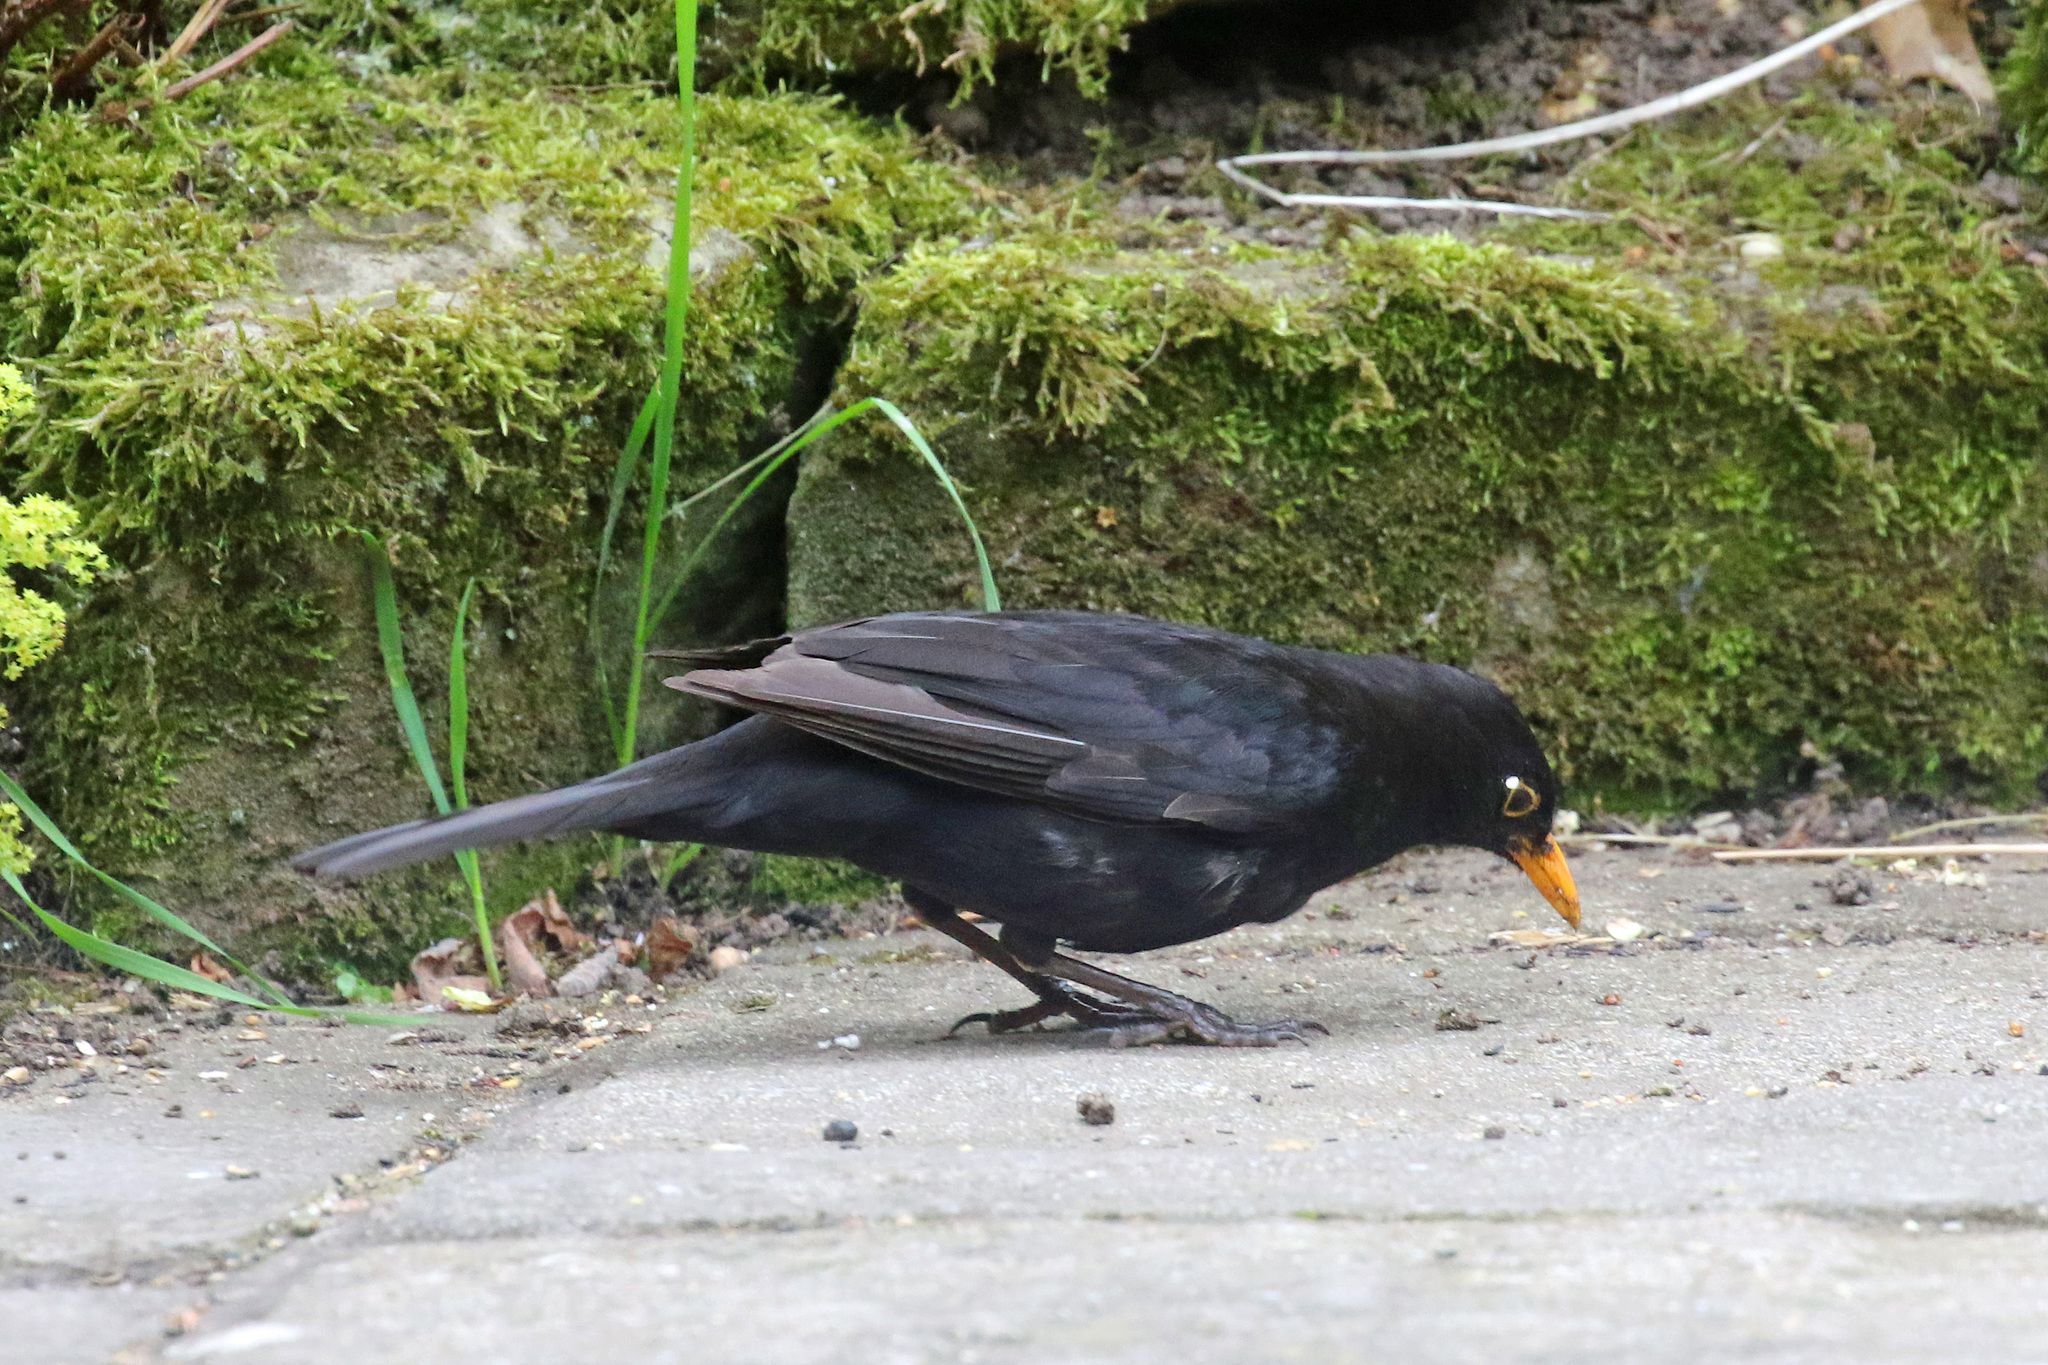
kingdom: Animalia
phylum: Chordata
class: Aves
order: Passeriformes
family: Turdidae
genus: Turdus
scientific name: Turdus merula
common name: Common blackbird
